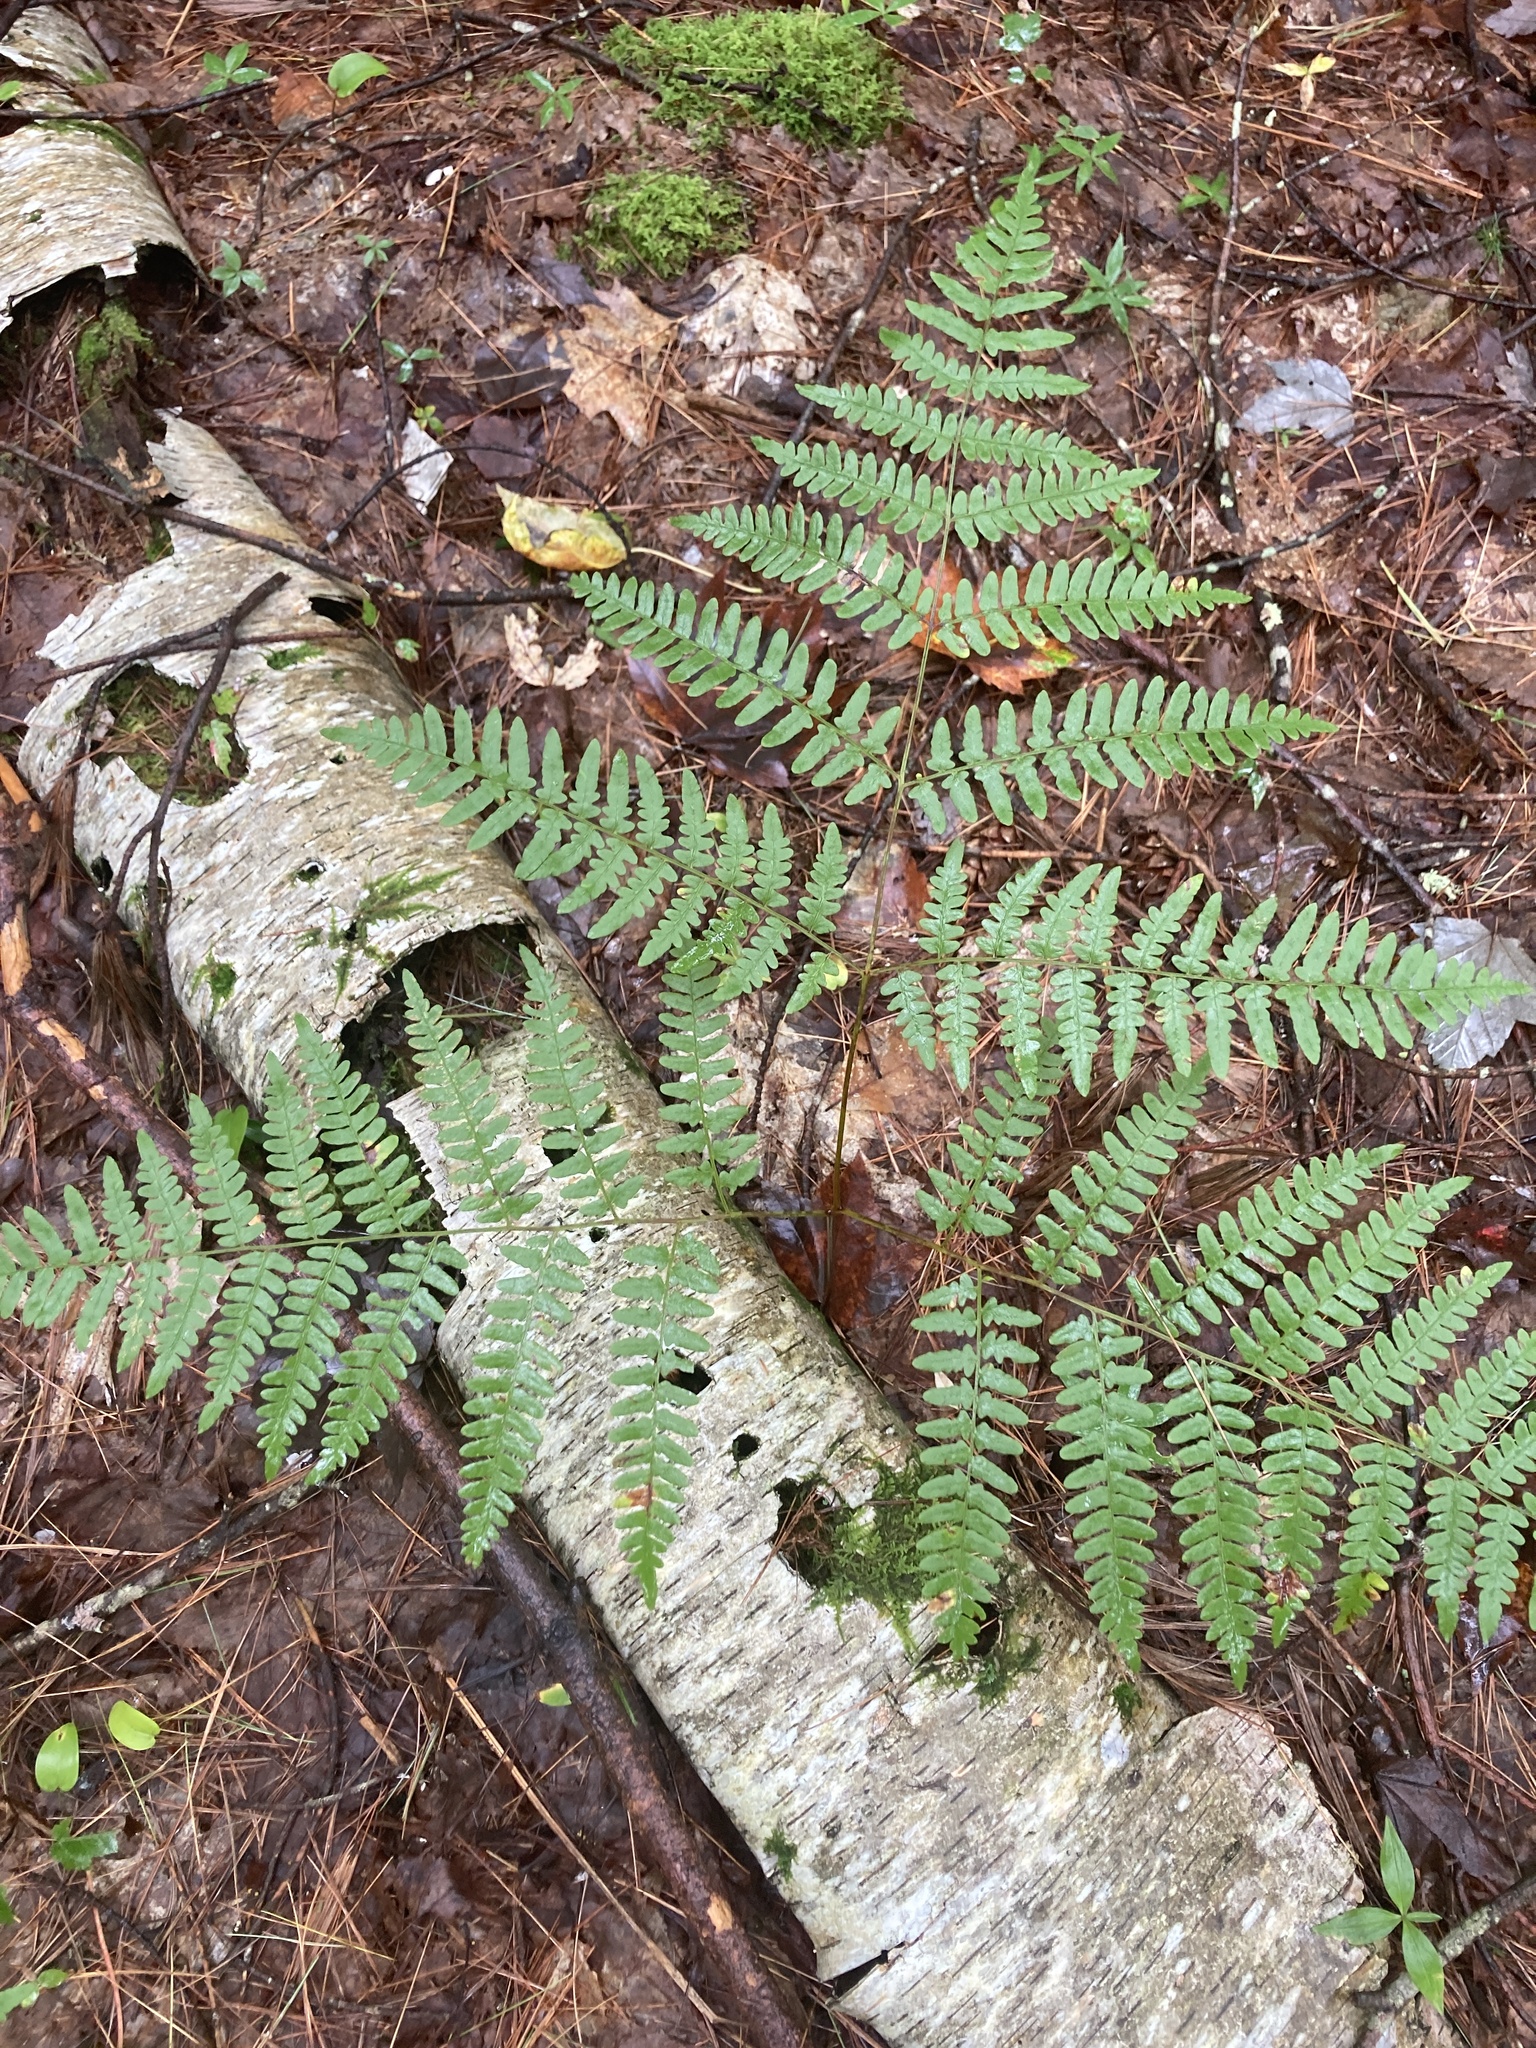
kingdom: Plantae
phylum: Tracheophyta
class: Polypodiopsida
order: Polypodiales
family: Dennstaedtiaceae
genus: Pteridium
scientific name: Pteridium aquilinum
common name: Bracken
